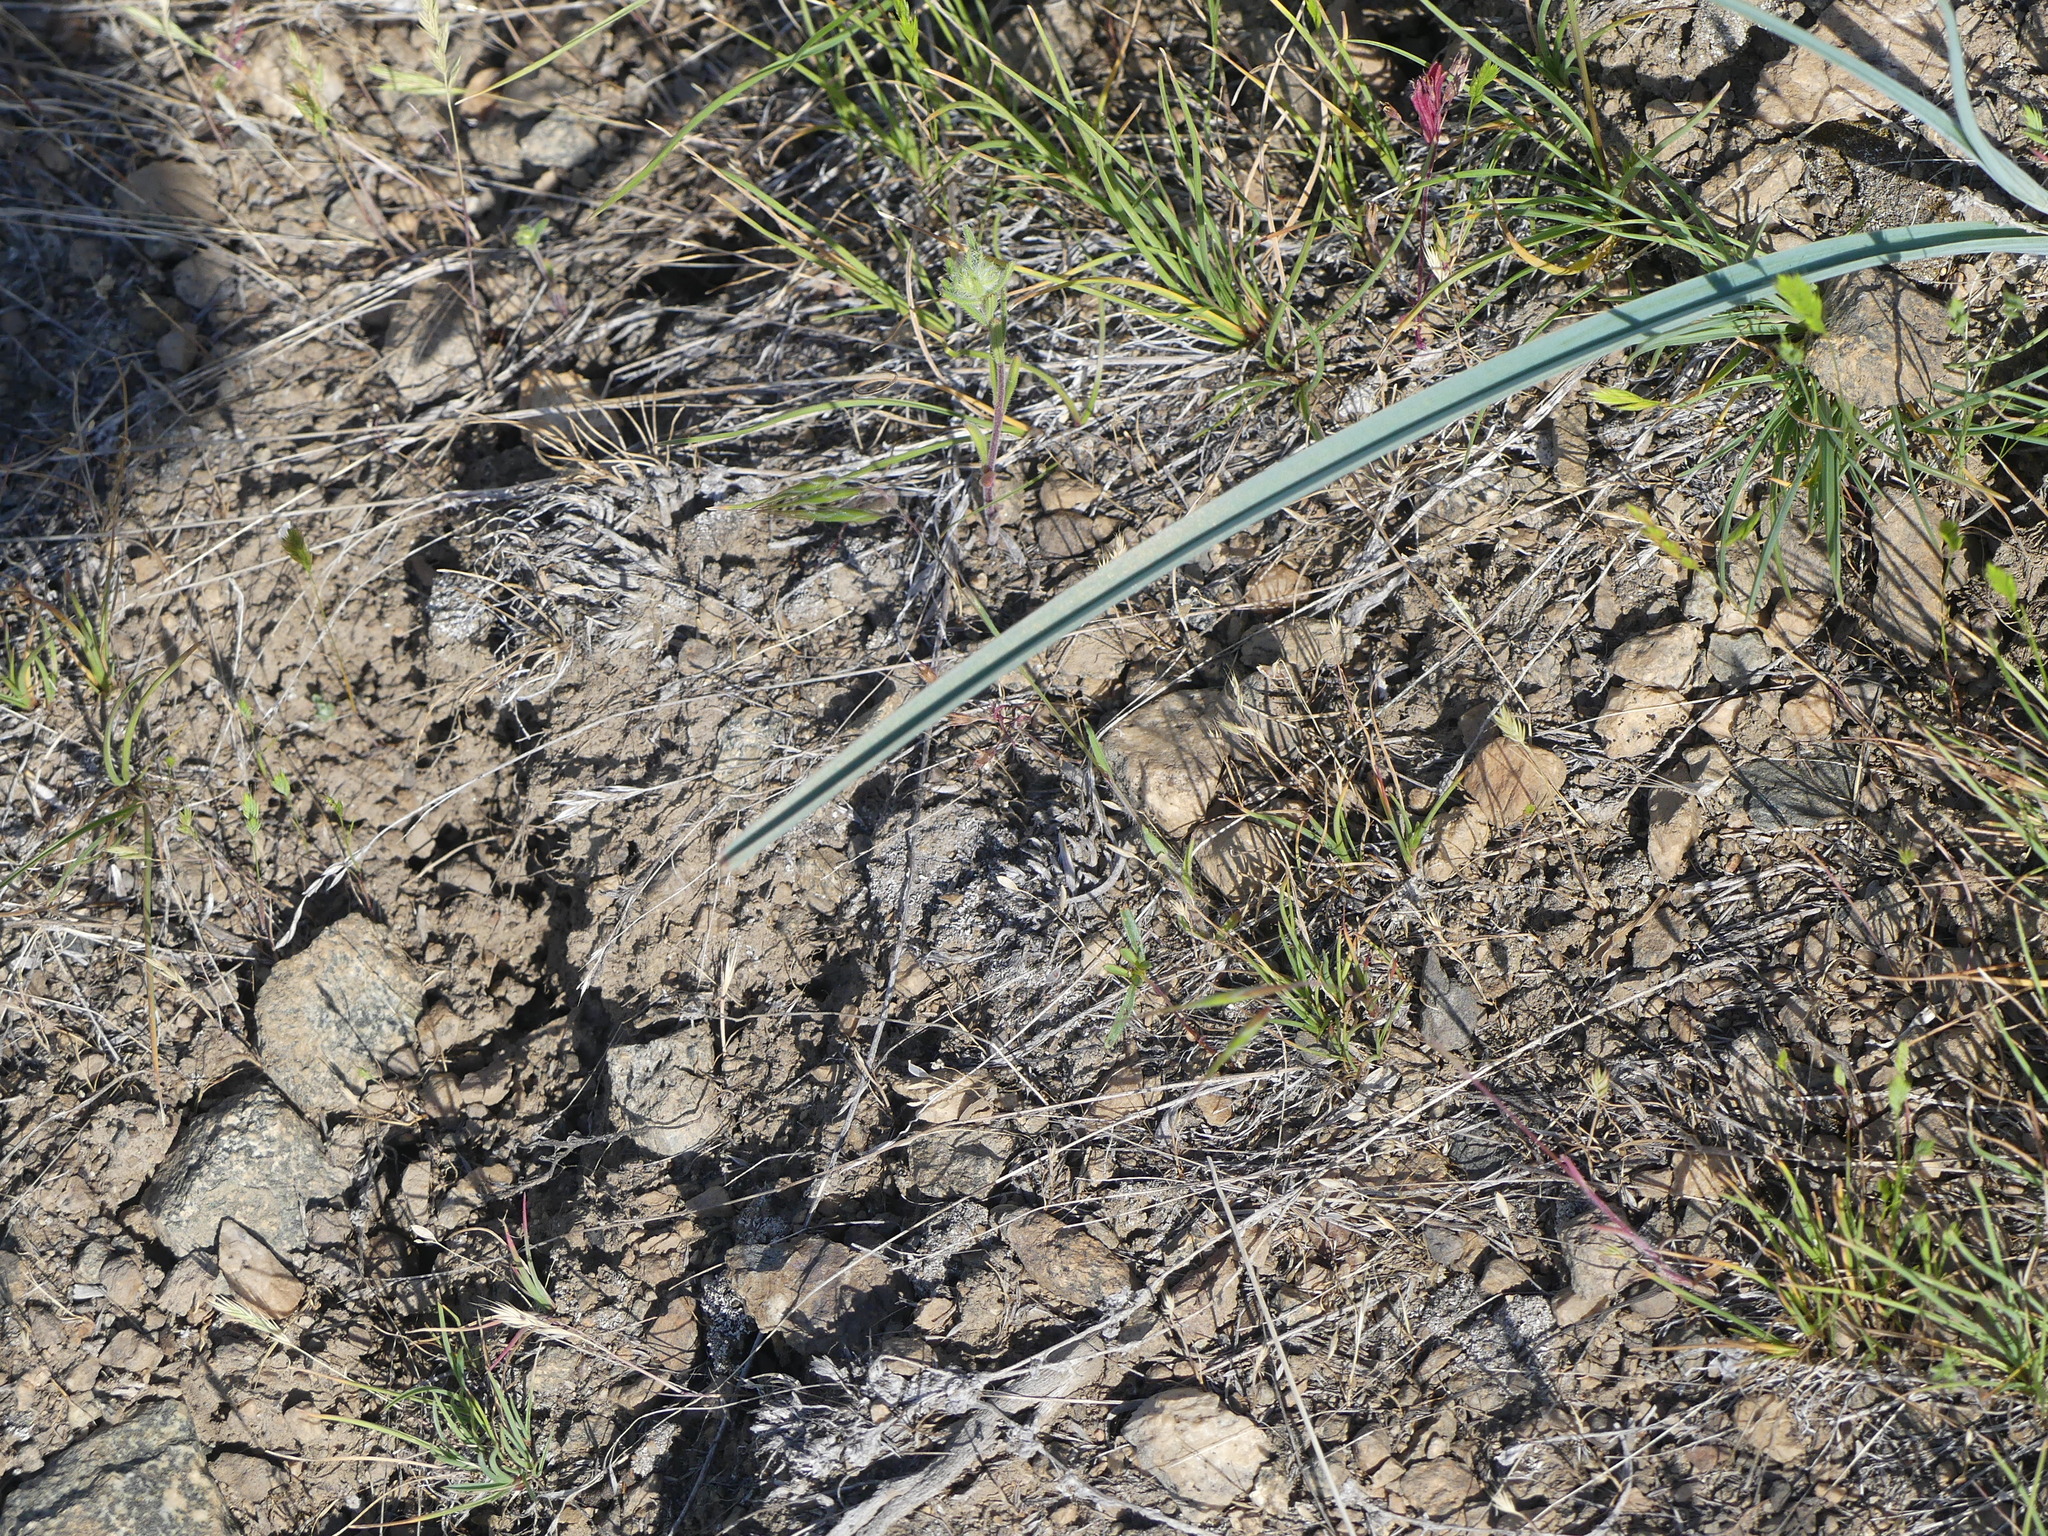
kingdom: Plantae
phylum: Tracheophyta
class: Liliopsida
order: Liliales
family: Liliaceae
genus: Calochortus
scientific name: Calochortus macrocarpus
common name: Green-band mariposa lily
